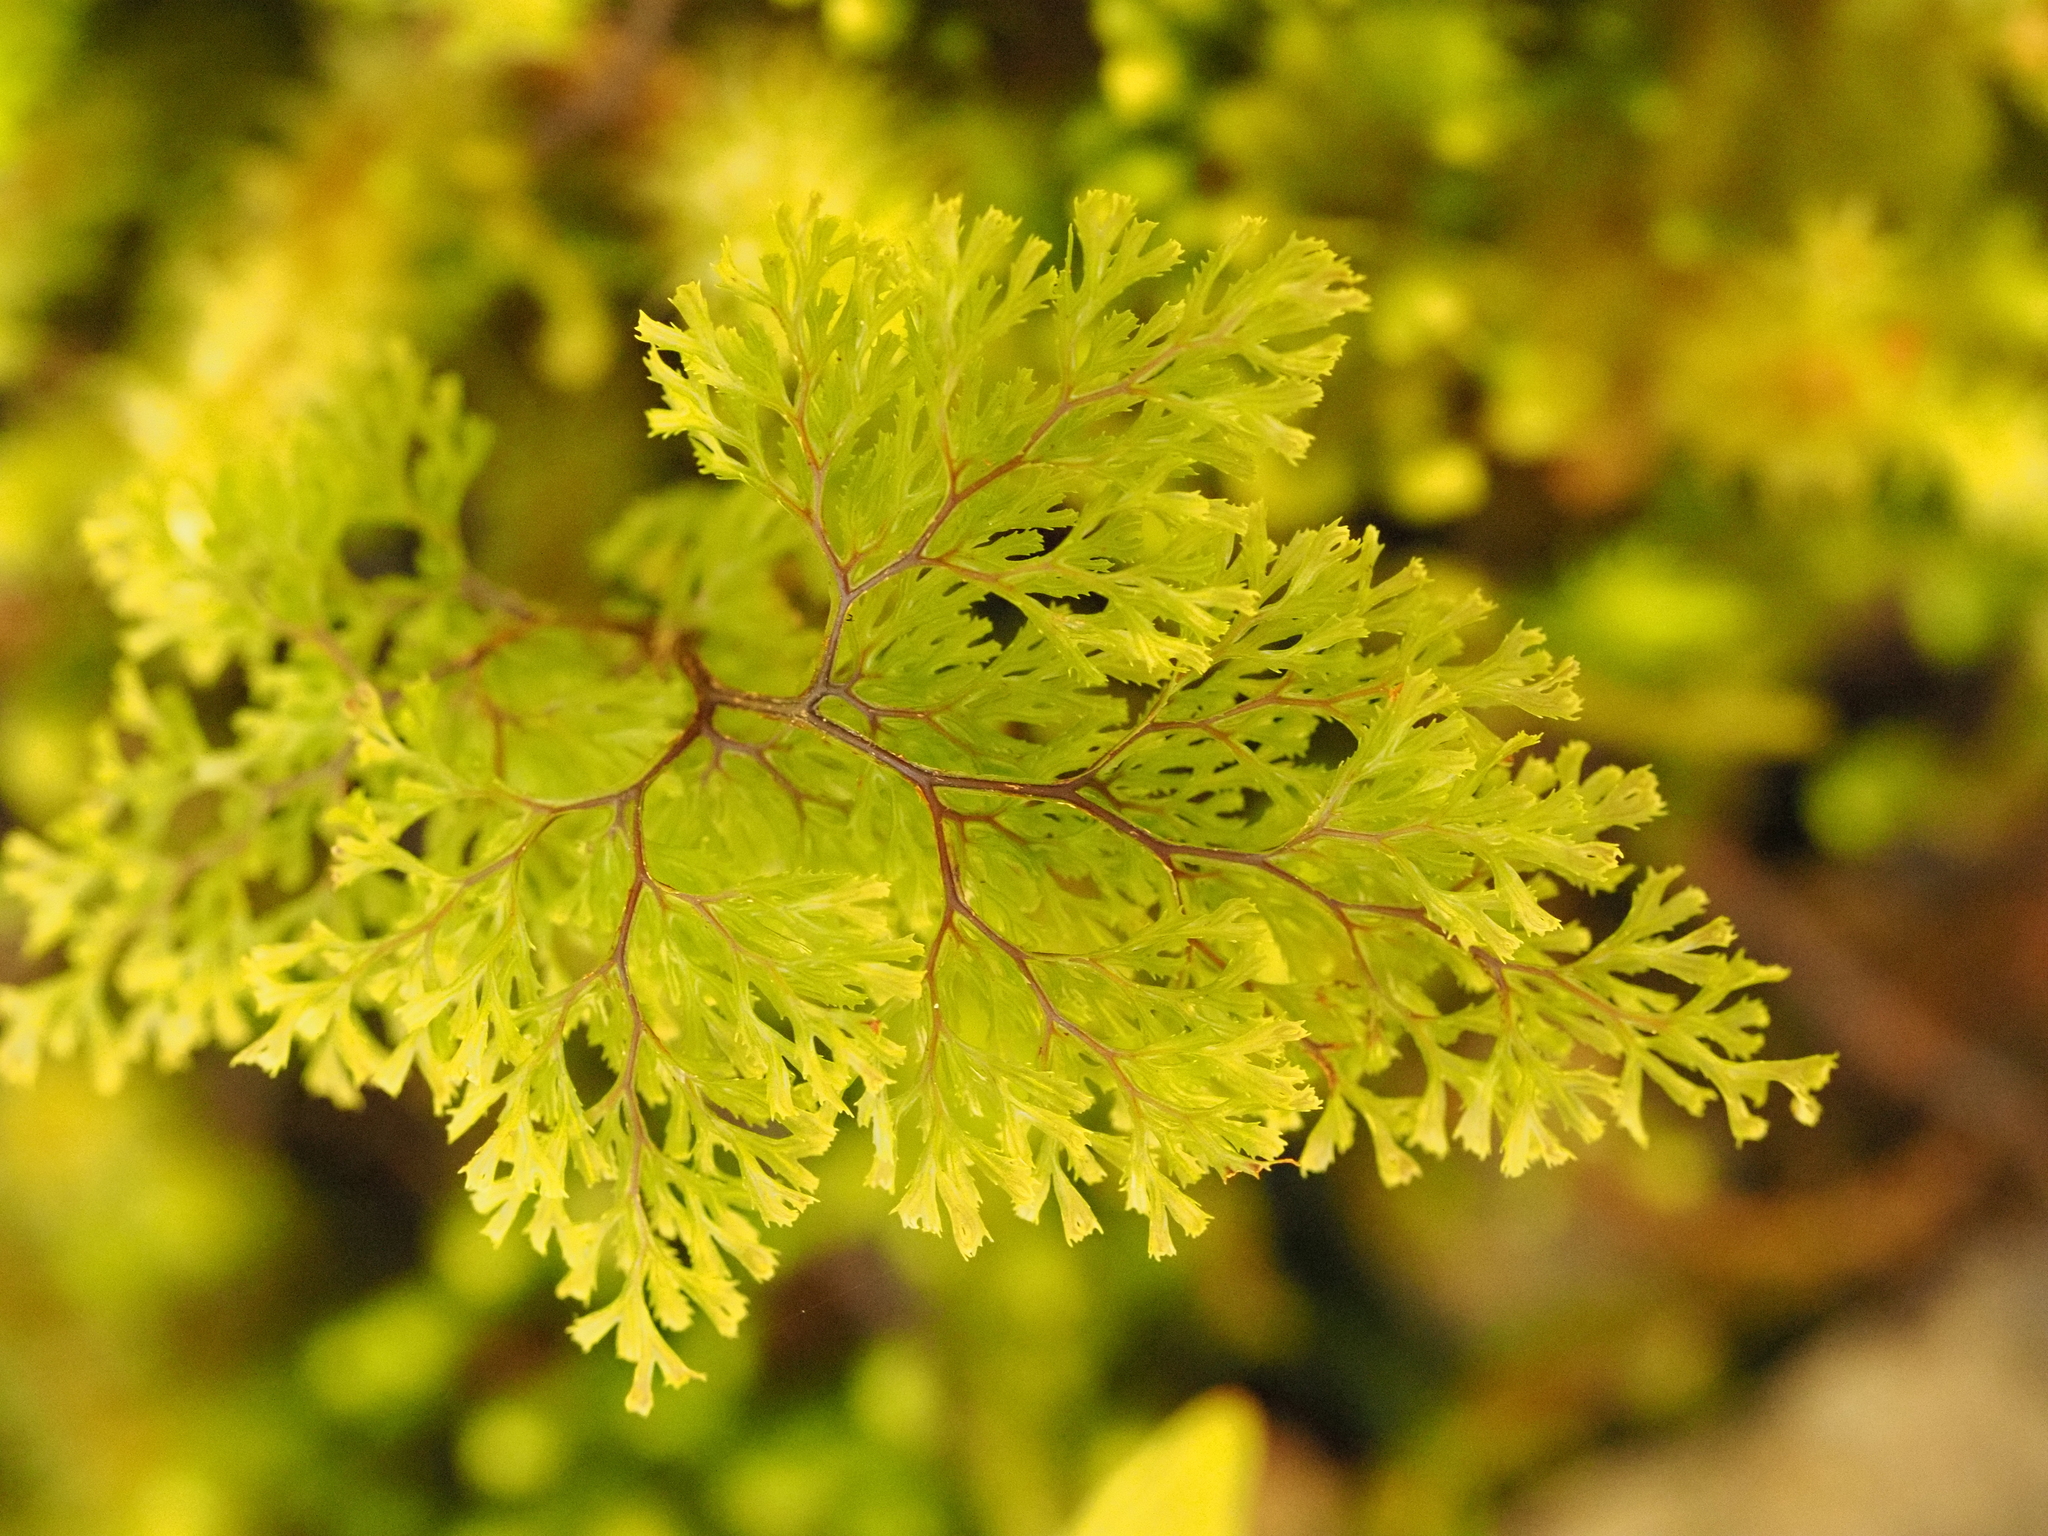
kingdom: Plantae
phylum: Tracheophyta
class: Polypodiopsida
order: Hymenophyllales
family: Hymenophyllaceae
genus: Hymenophyllum
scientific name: Hymenophyllum multifidum
